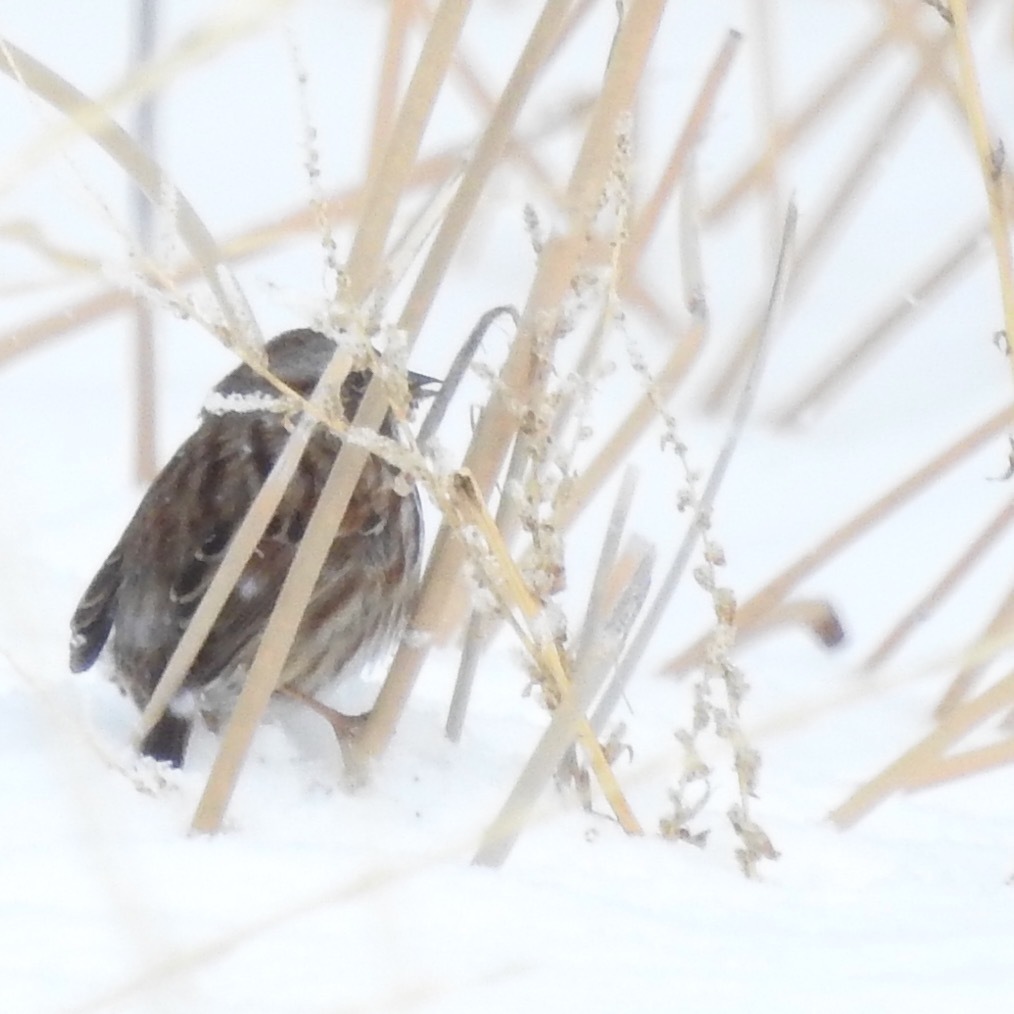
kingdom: Animalia
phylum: Chordata
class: Aves
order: Passeriformes
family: Passerellidae
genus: Melospiza
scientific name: Melospiza melodia
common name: Song sparrow
